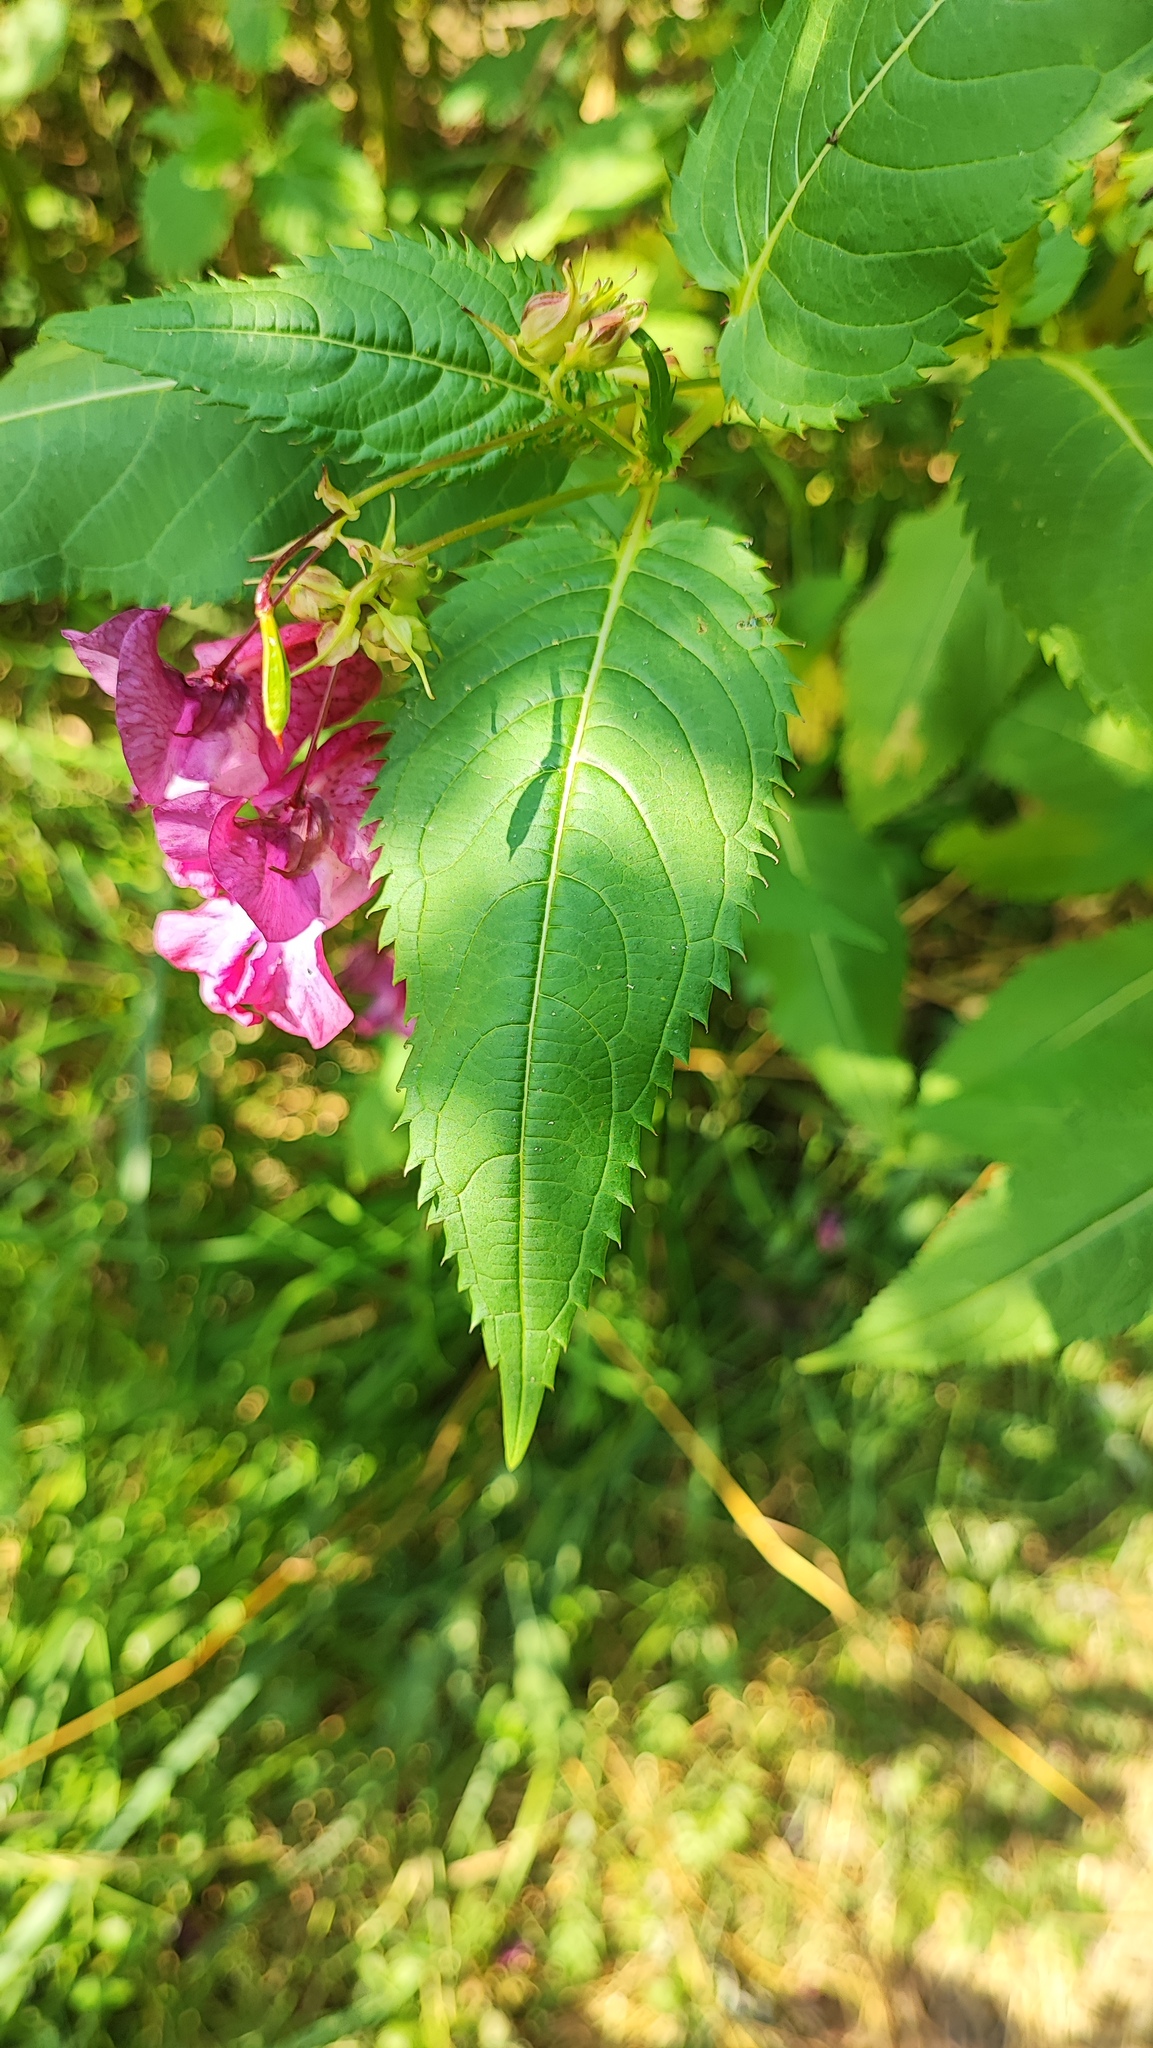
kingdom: Plantae
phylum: Tracheophyta
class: Magnoliopsida
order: Ericales
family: Balsaminaceae
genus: Impatiens
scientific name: Impatiens glandulifera
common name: Himalayan balsam
